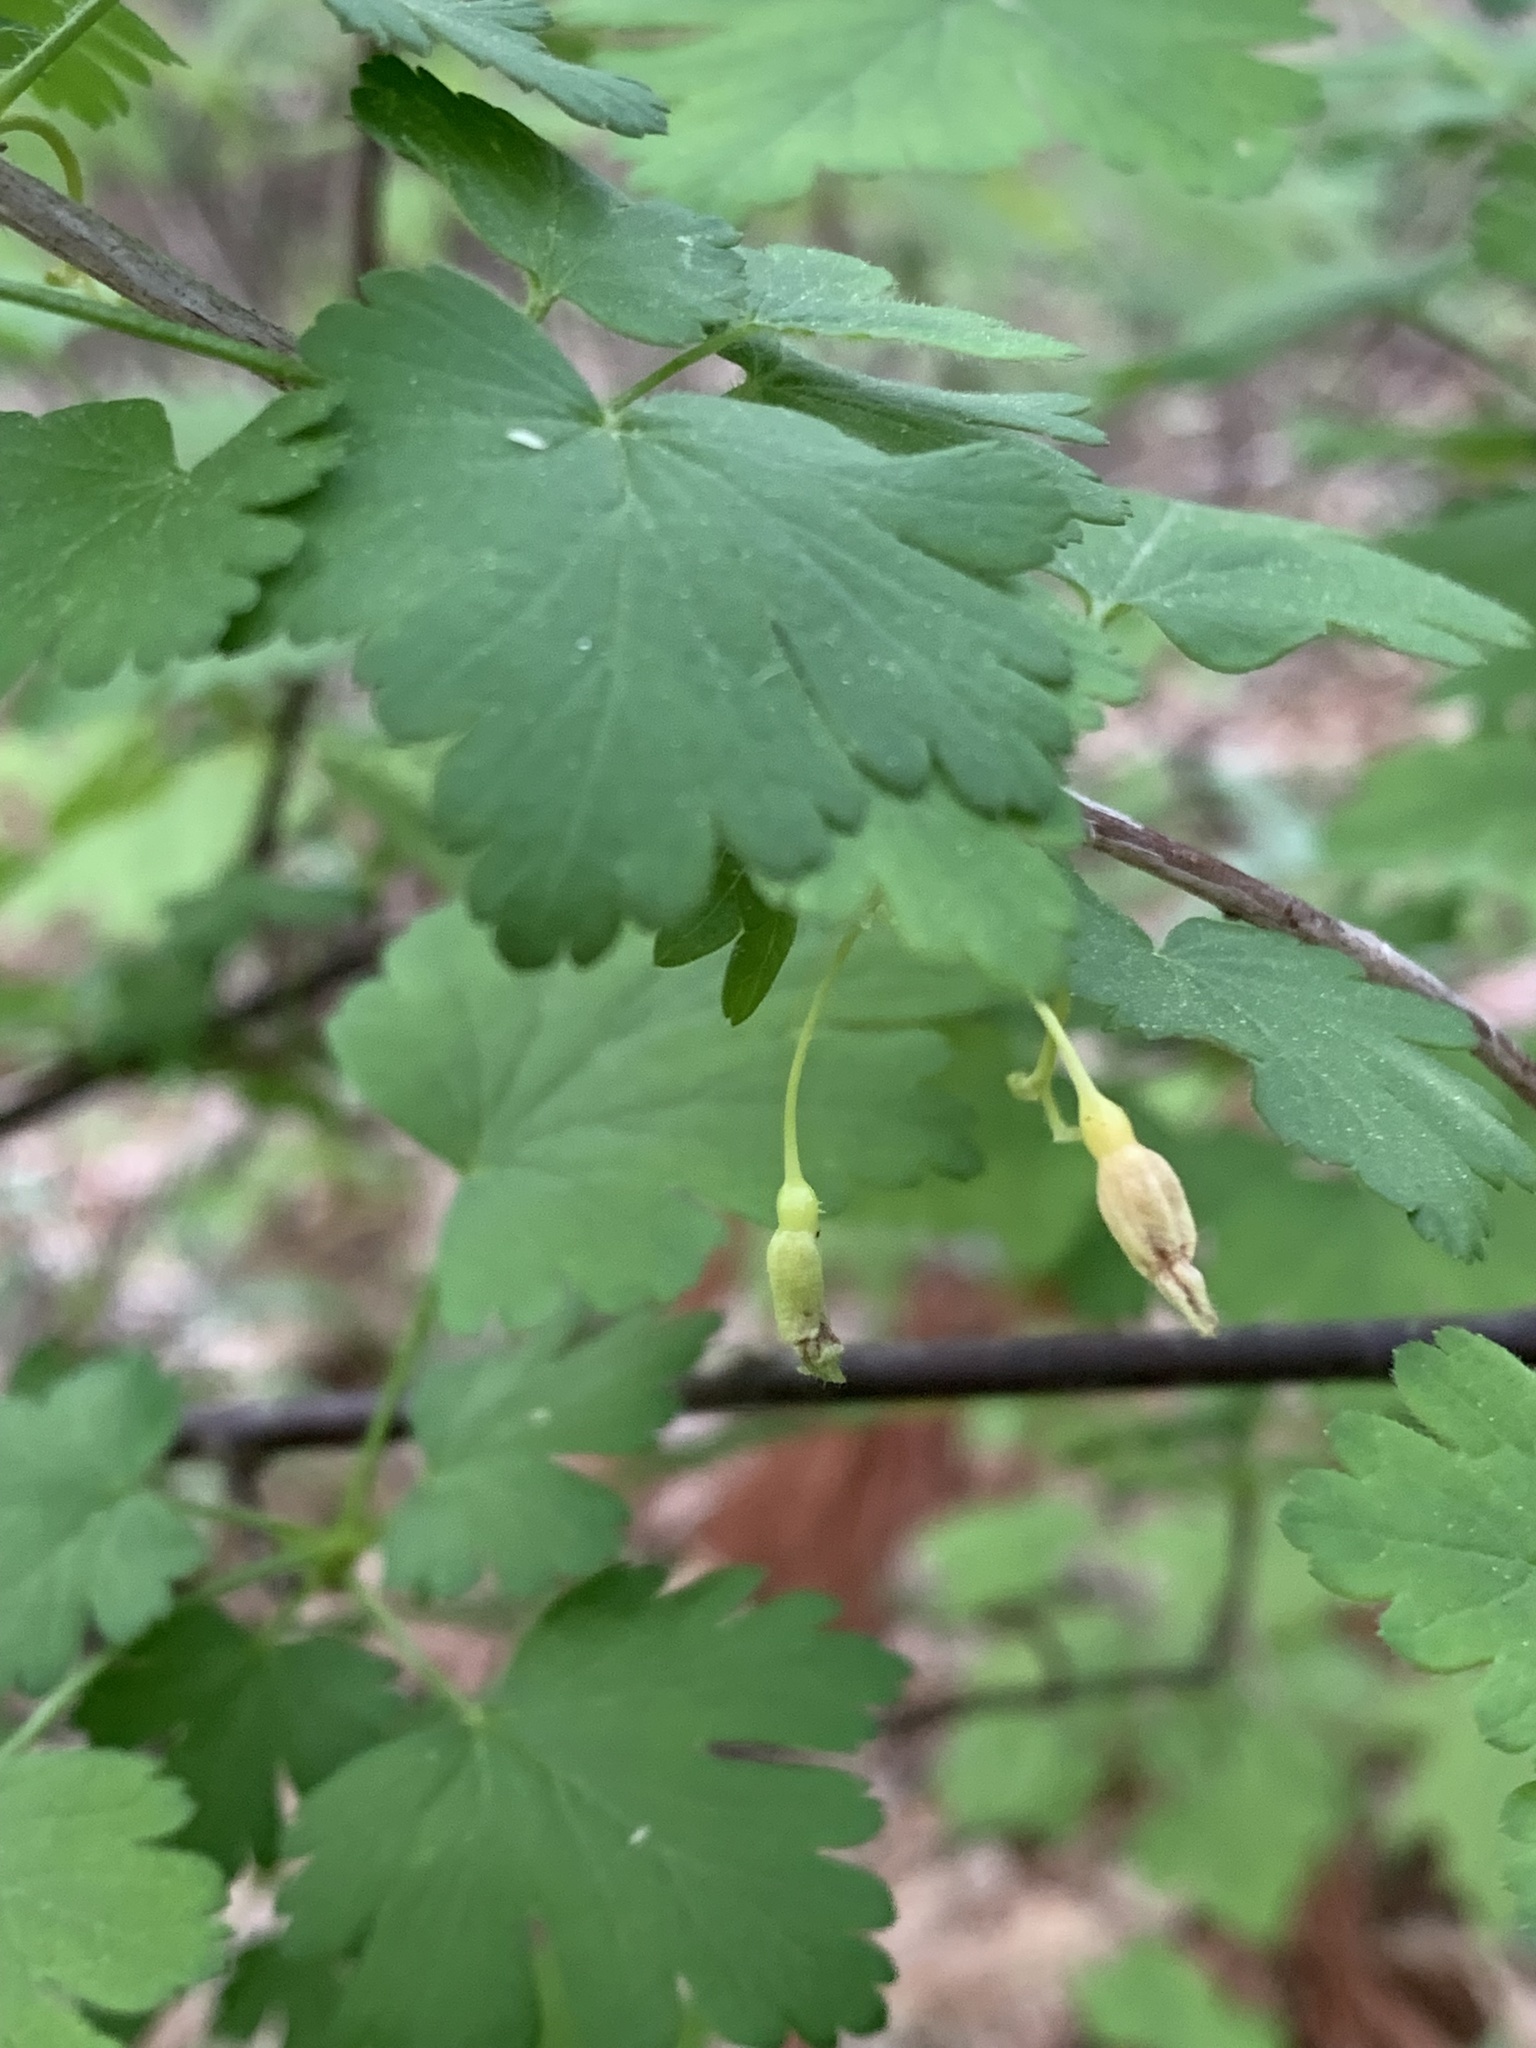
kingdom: Plantae
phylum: Tracheophyta
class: Magnoliopsida
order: Saxifragales
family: Grossulariaceae
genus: Ribes
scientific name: Ribes cynosbati
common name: American gooseberry
